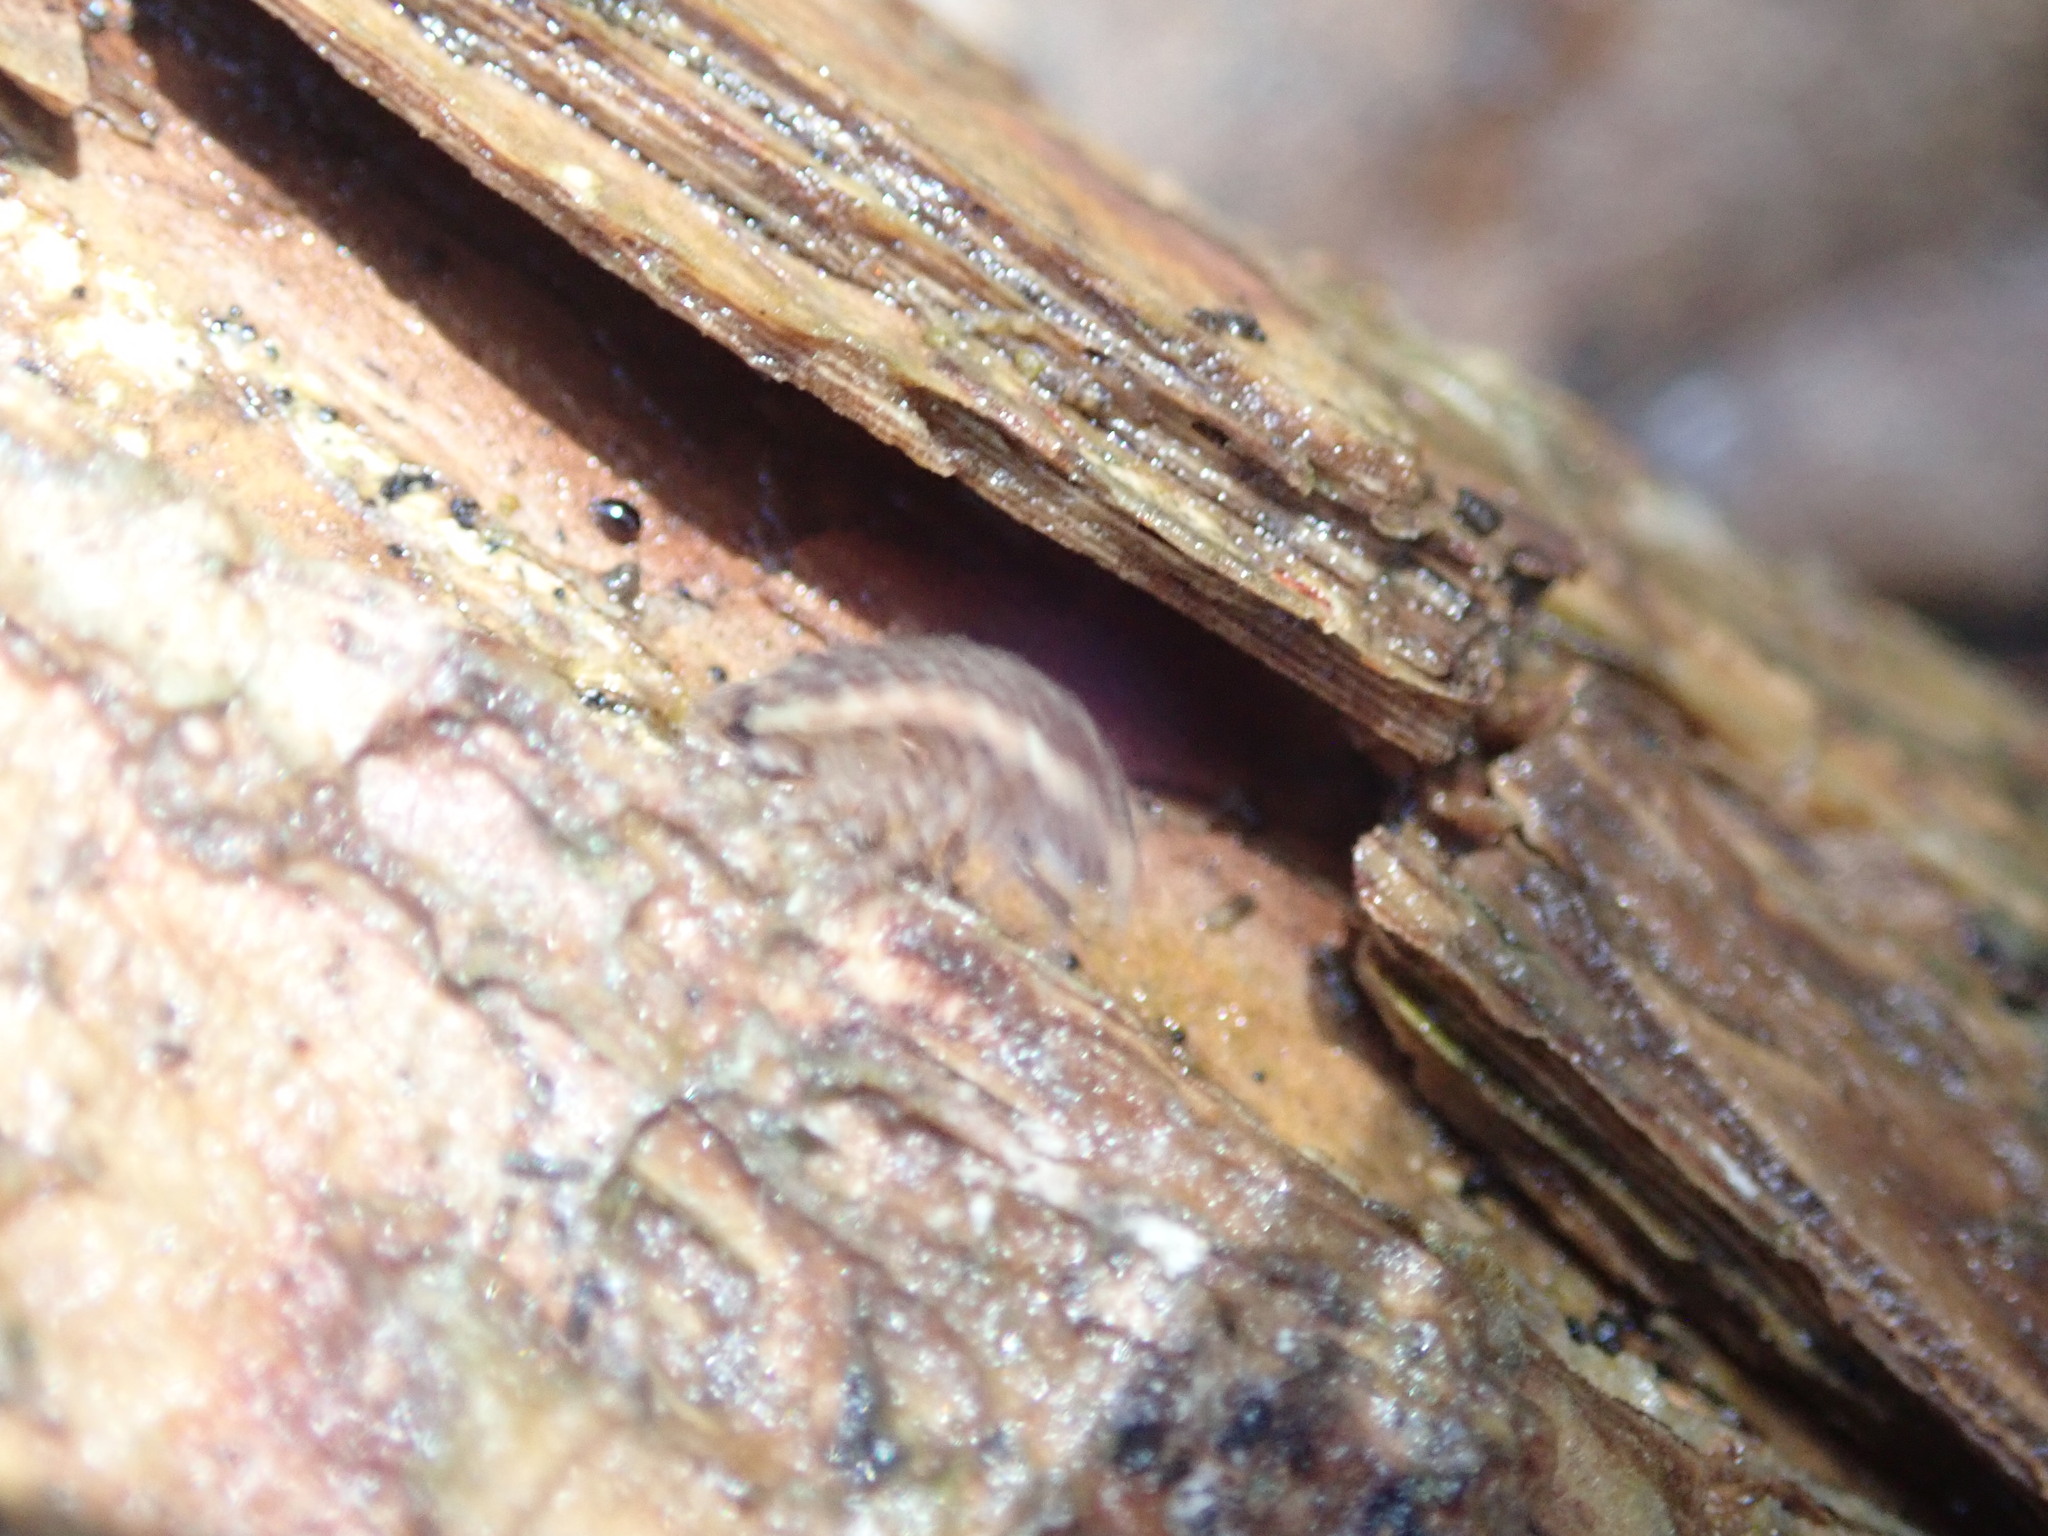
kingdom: Animalia
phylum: Arthropoda
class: Malacostraca
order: Isopoda
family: Philosciidae
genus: Philoscia
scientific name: Philoscia muscorum
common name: Common striped woodlouse
